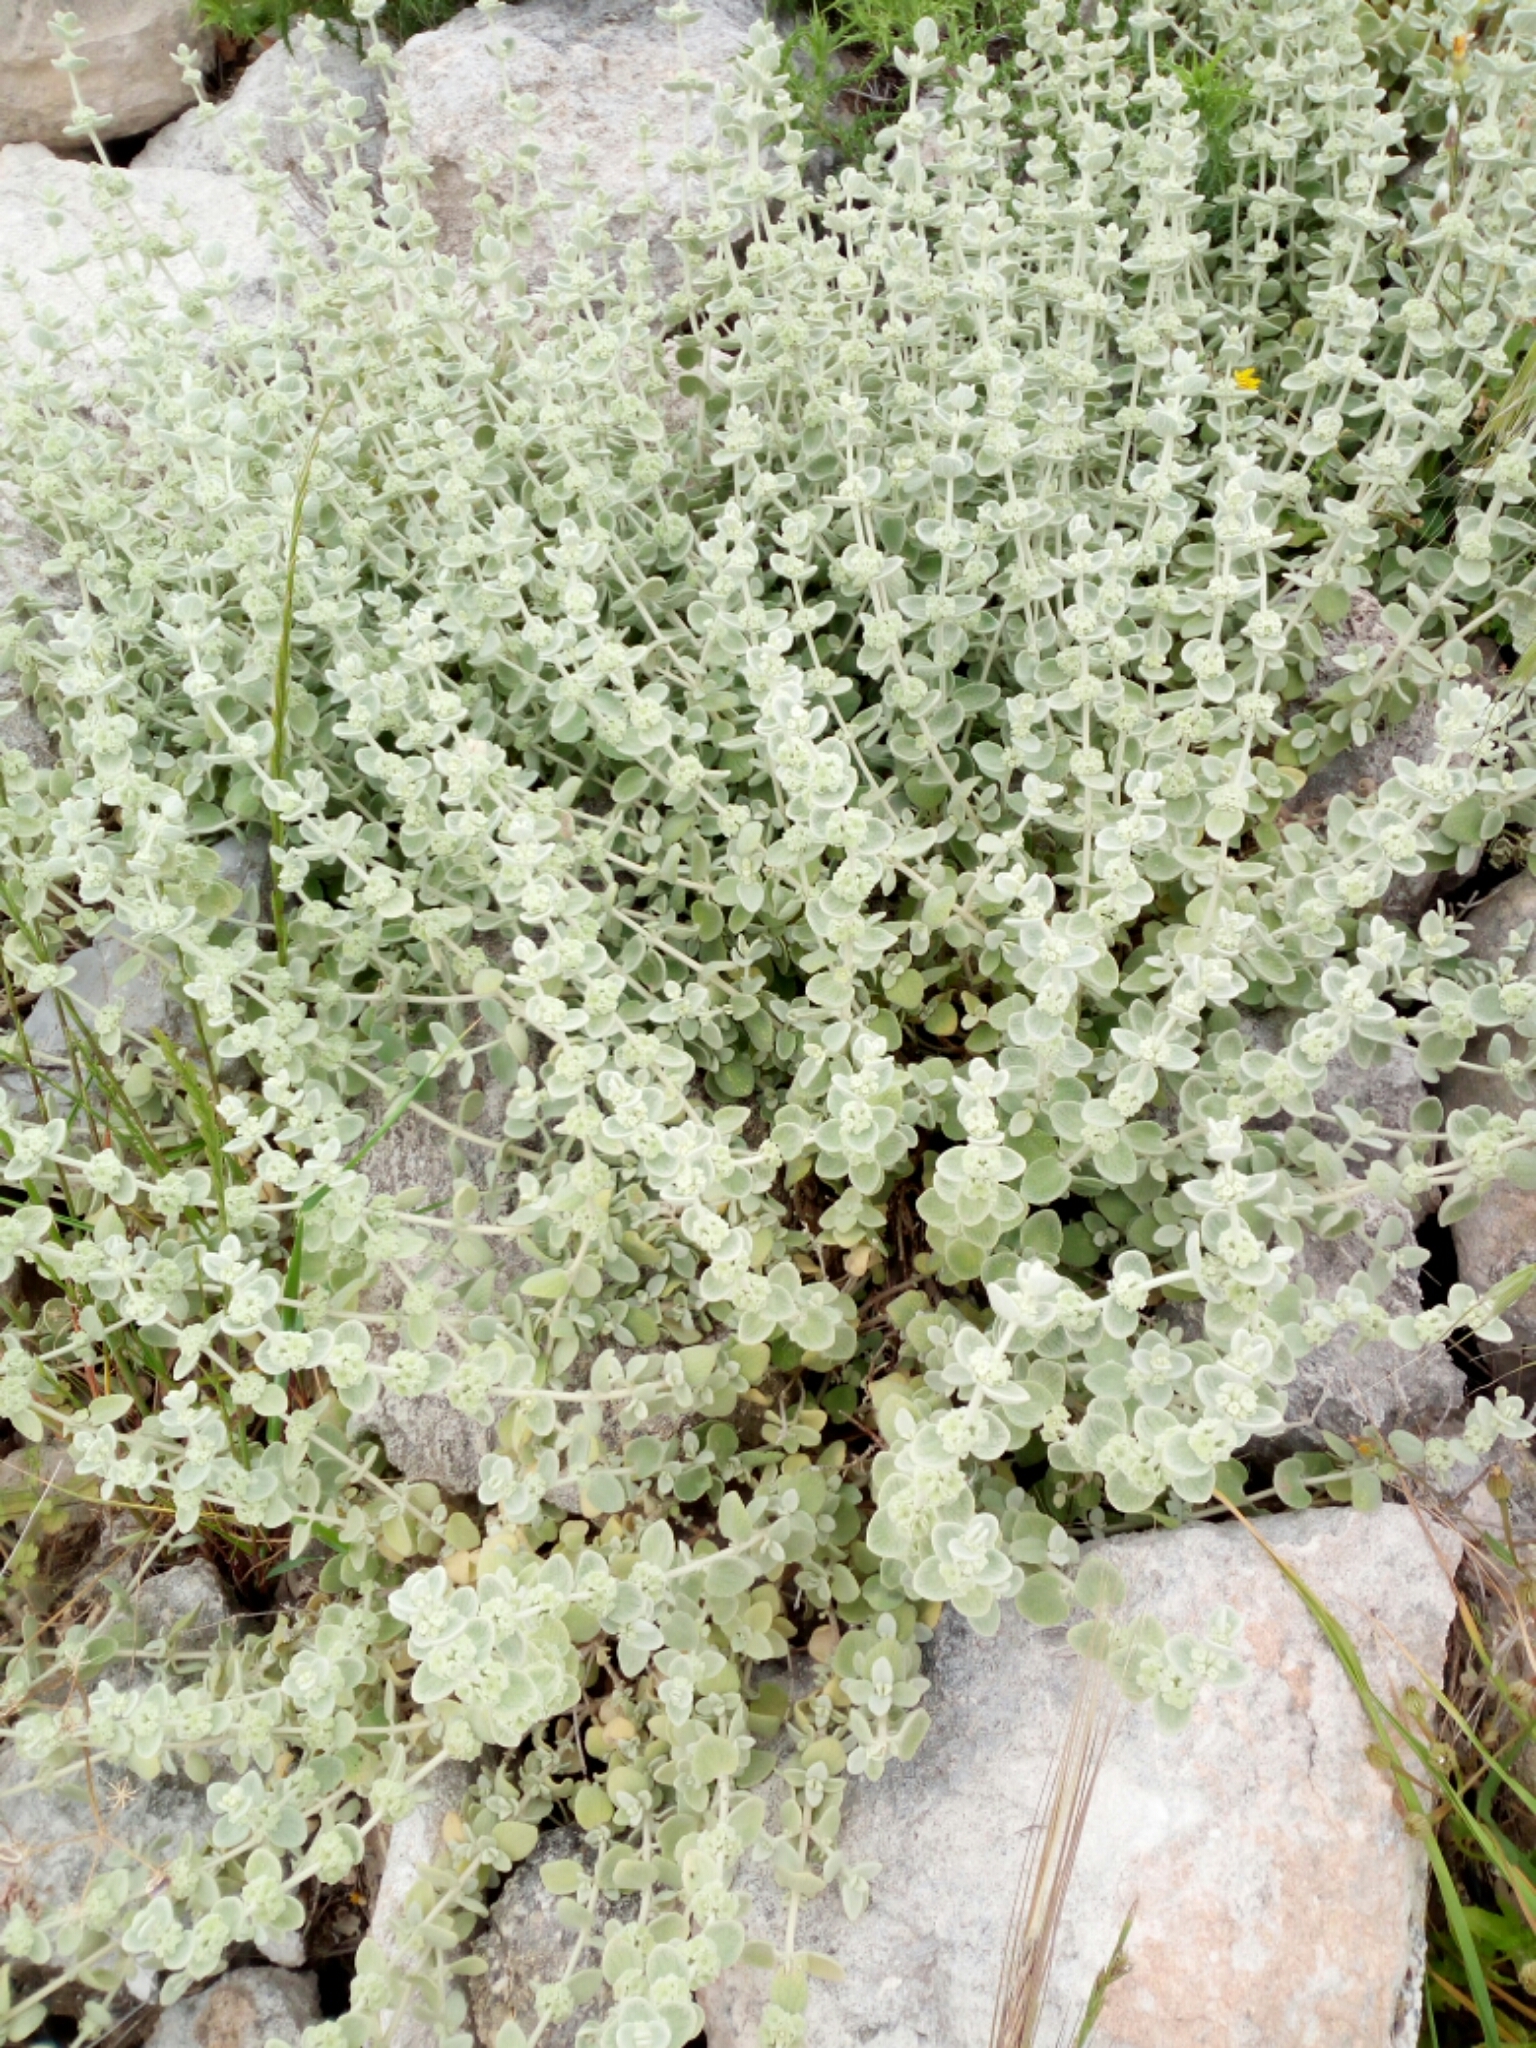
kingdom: Plantae
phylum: Tracheophyta
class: Magnoliopsida
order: Lamiales
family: Lamiaceae
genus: Pseudodictamnus
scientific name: Pseudodictamnus mediterraneus
